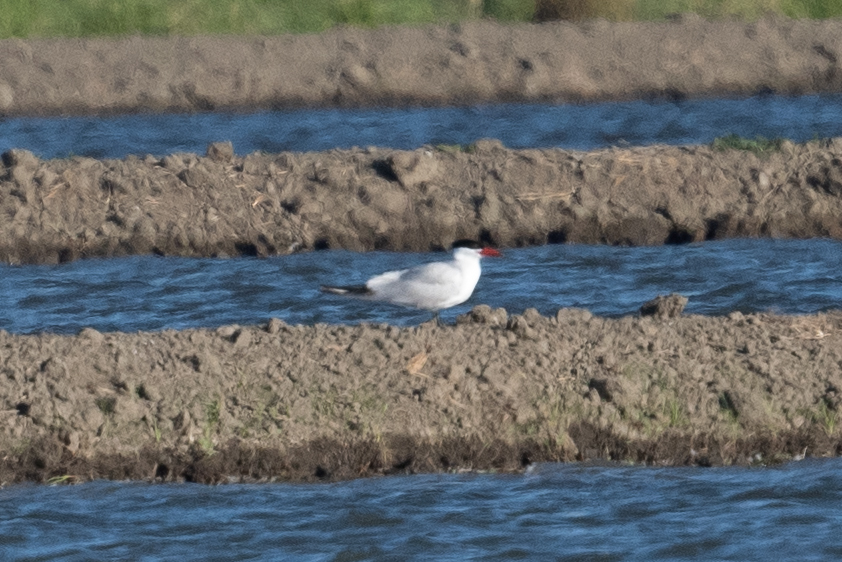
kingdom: Animalia
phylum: Chordata
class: Aves
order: Charadriiformes
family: Laridae
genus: Hydroprogne
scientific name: Hydroprogne caspia
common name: Caspian tern
